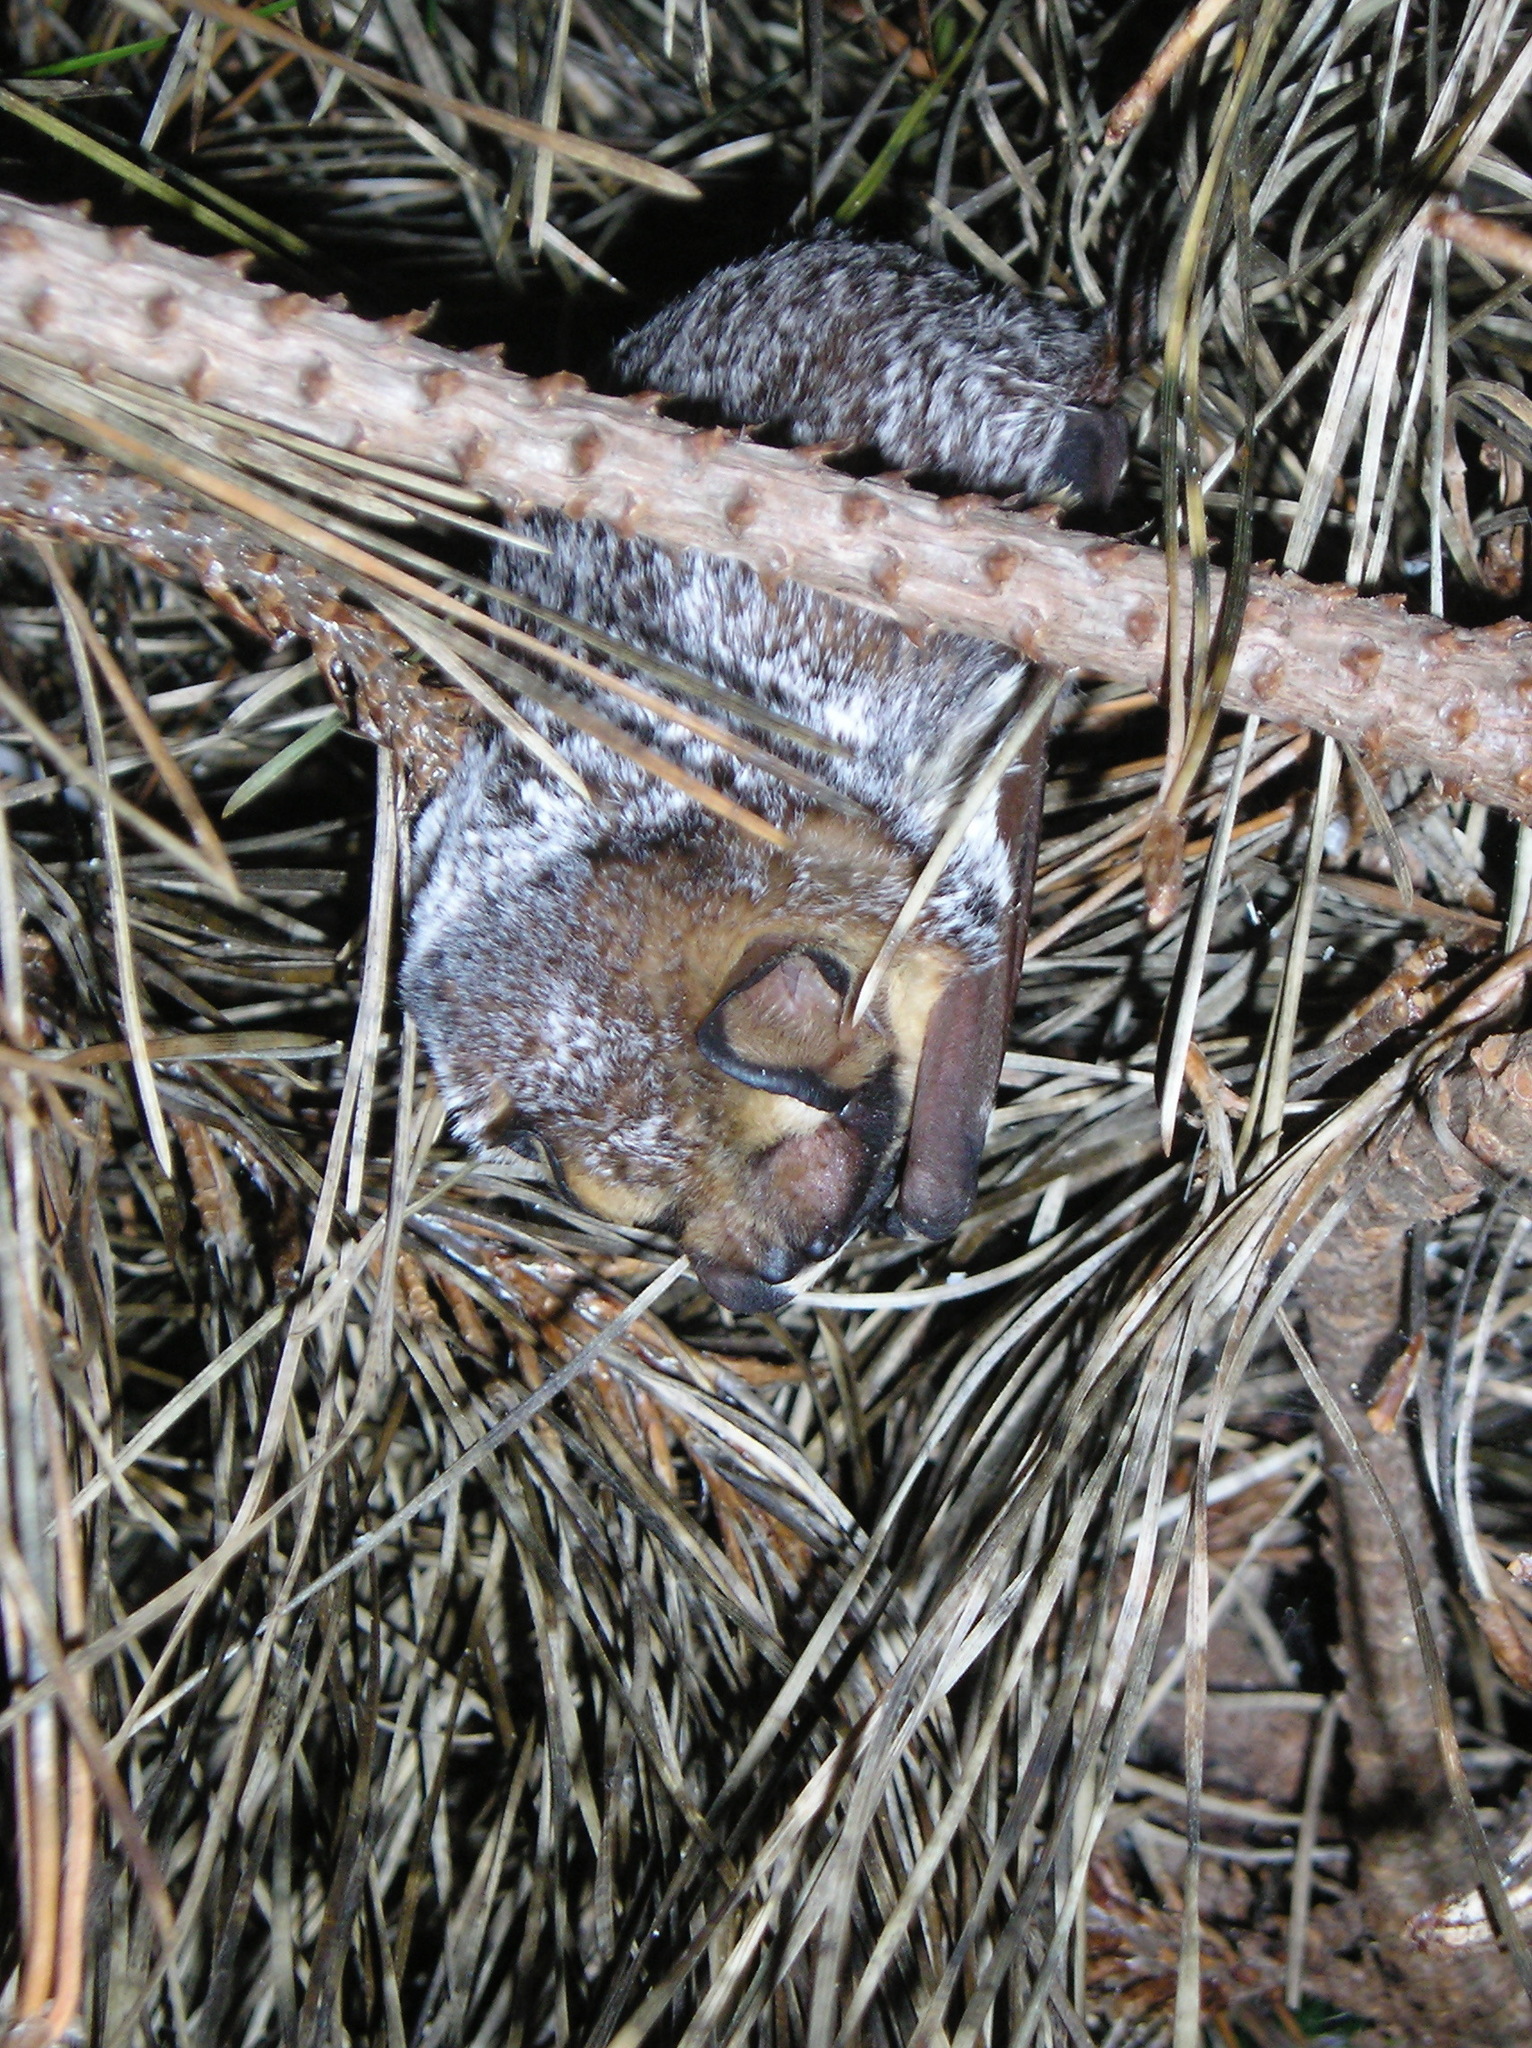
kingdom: Animalia
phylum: Chordata
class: Mammalia
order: Chiroptera
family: Vespertilionidae
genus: Aeorestes
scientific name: Aeorestes cinereus
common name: North american hoary bat
